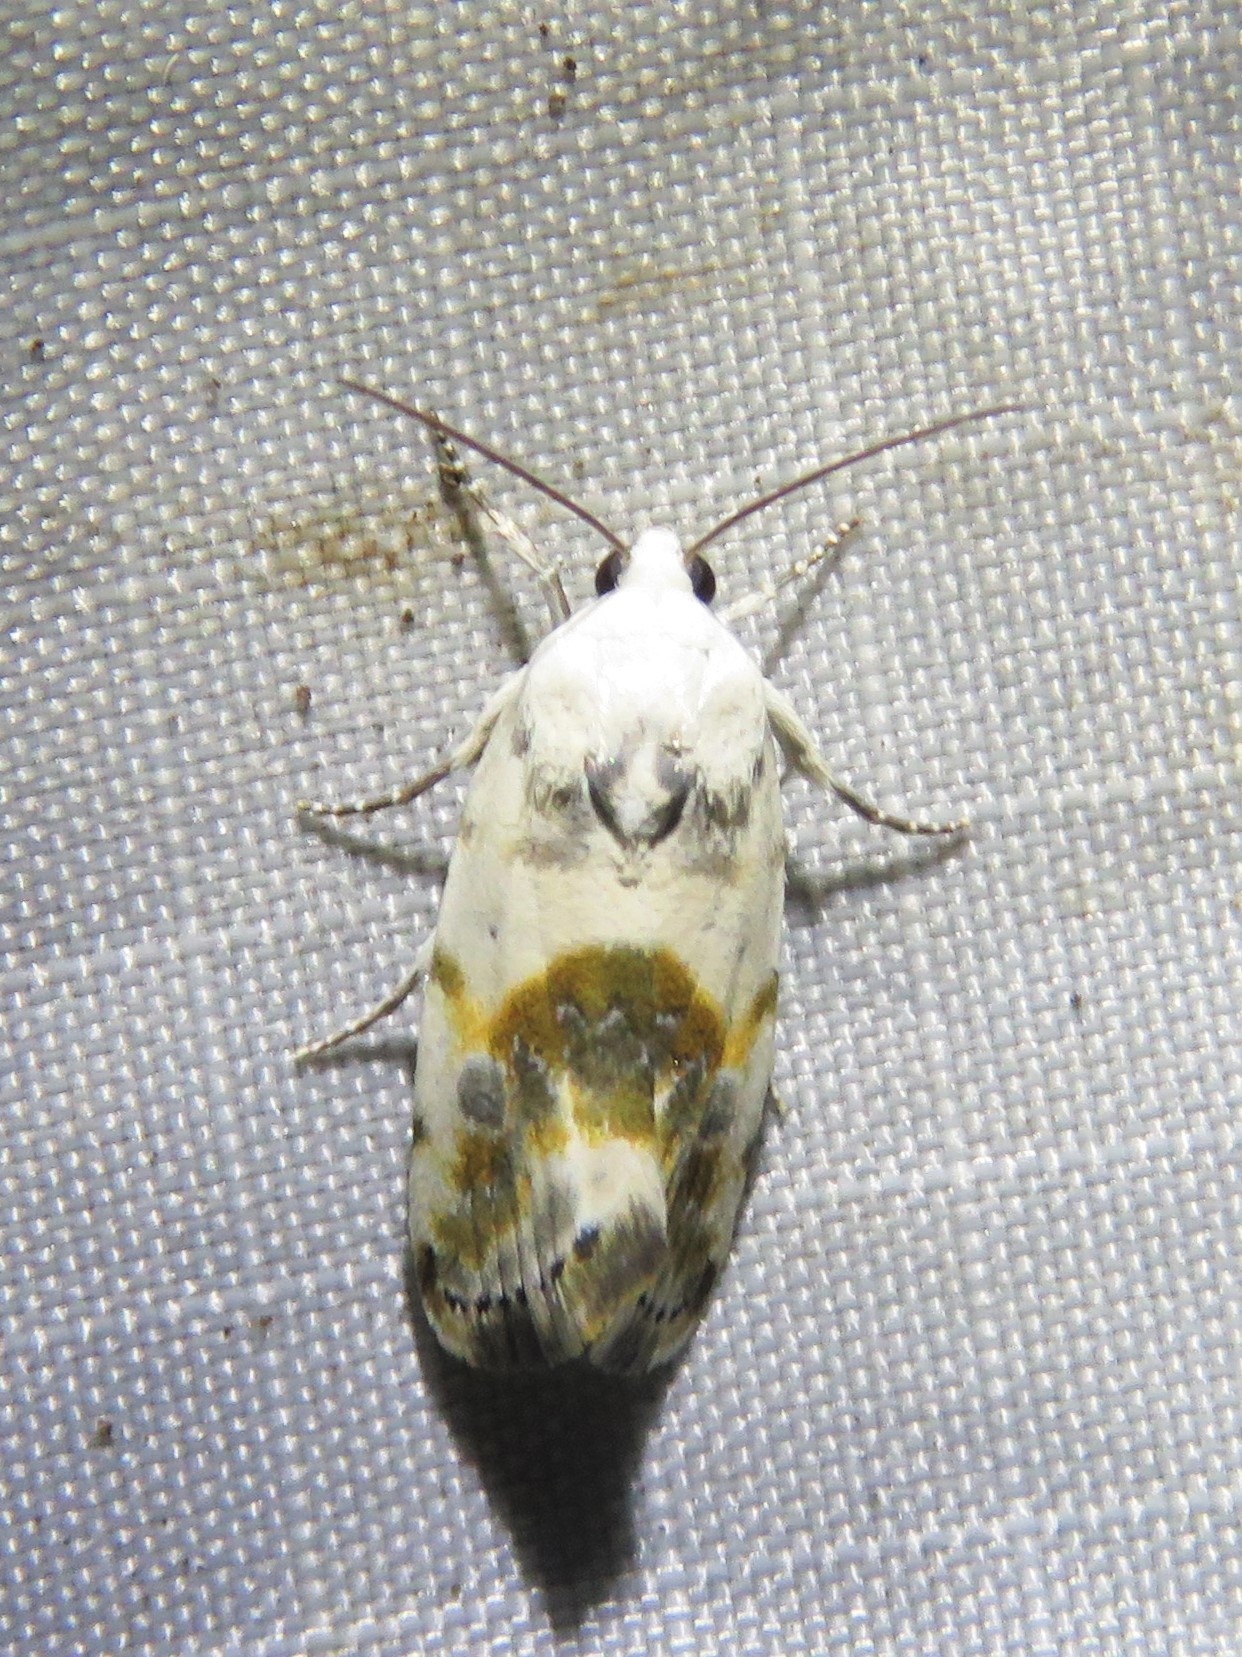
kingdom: Animalia
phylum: Arthropoda
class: Insecta
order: Lepidoptera
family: Noctuidae
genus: Acontia
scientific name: Acontia candefacta
